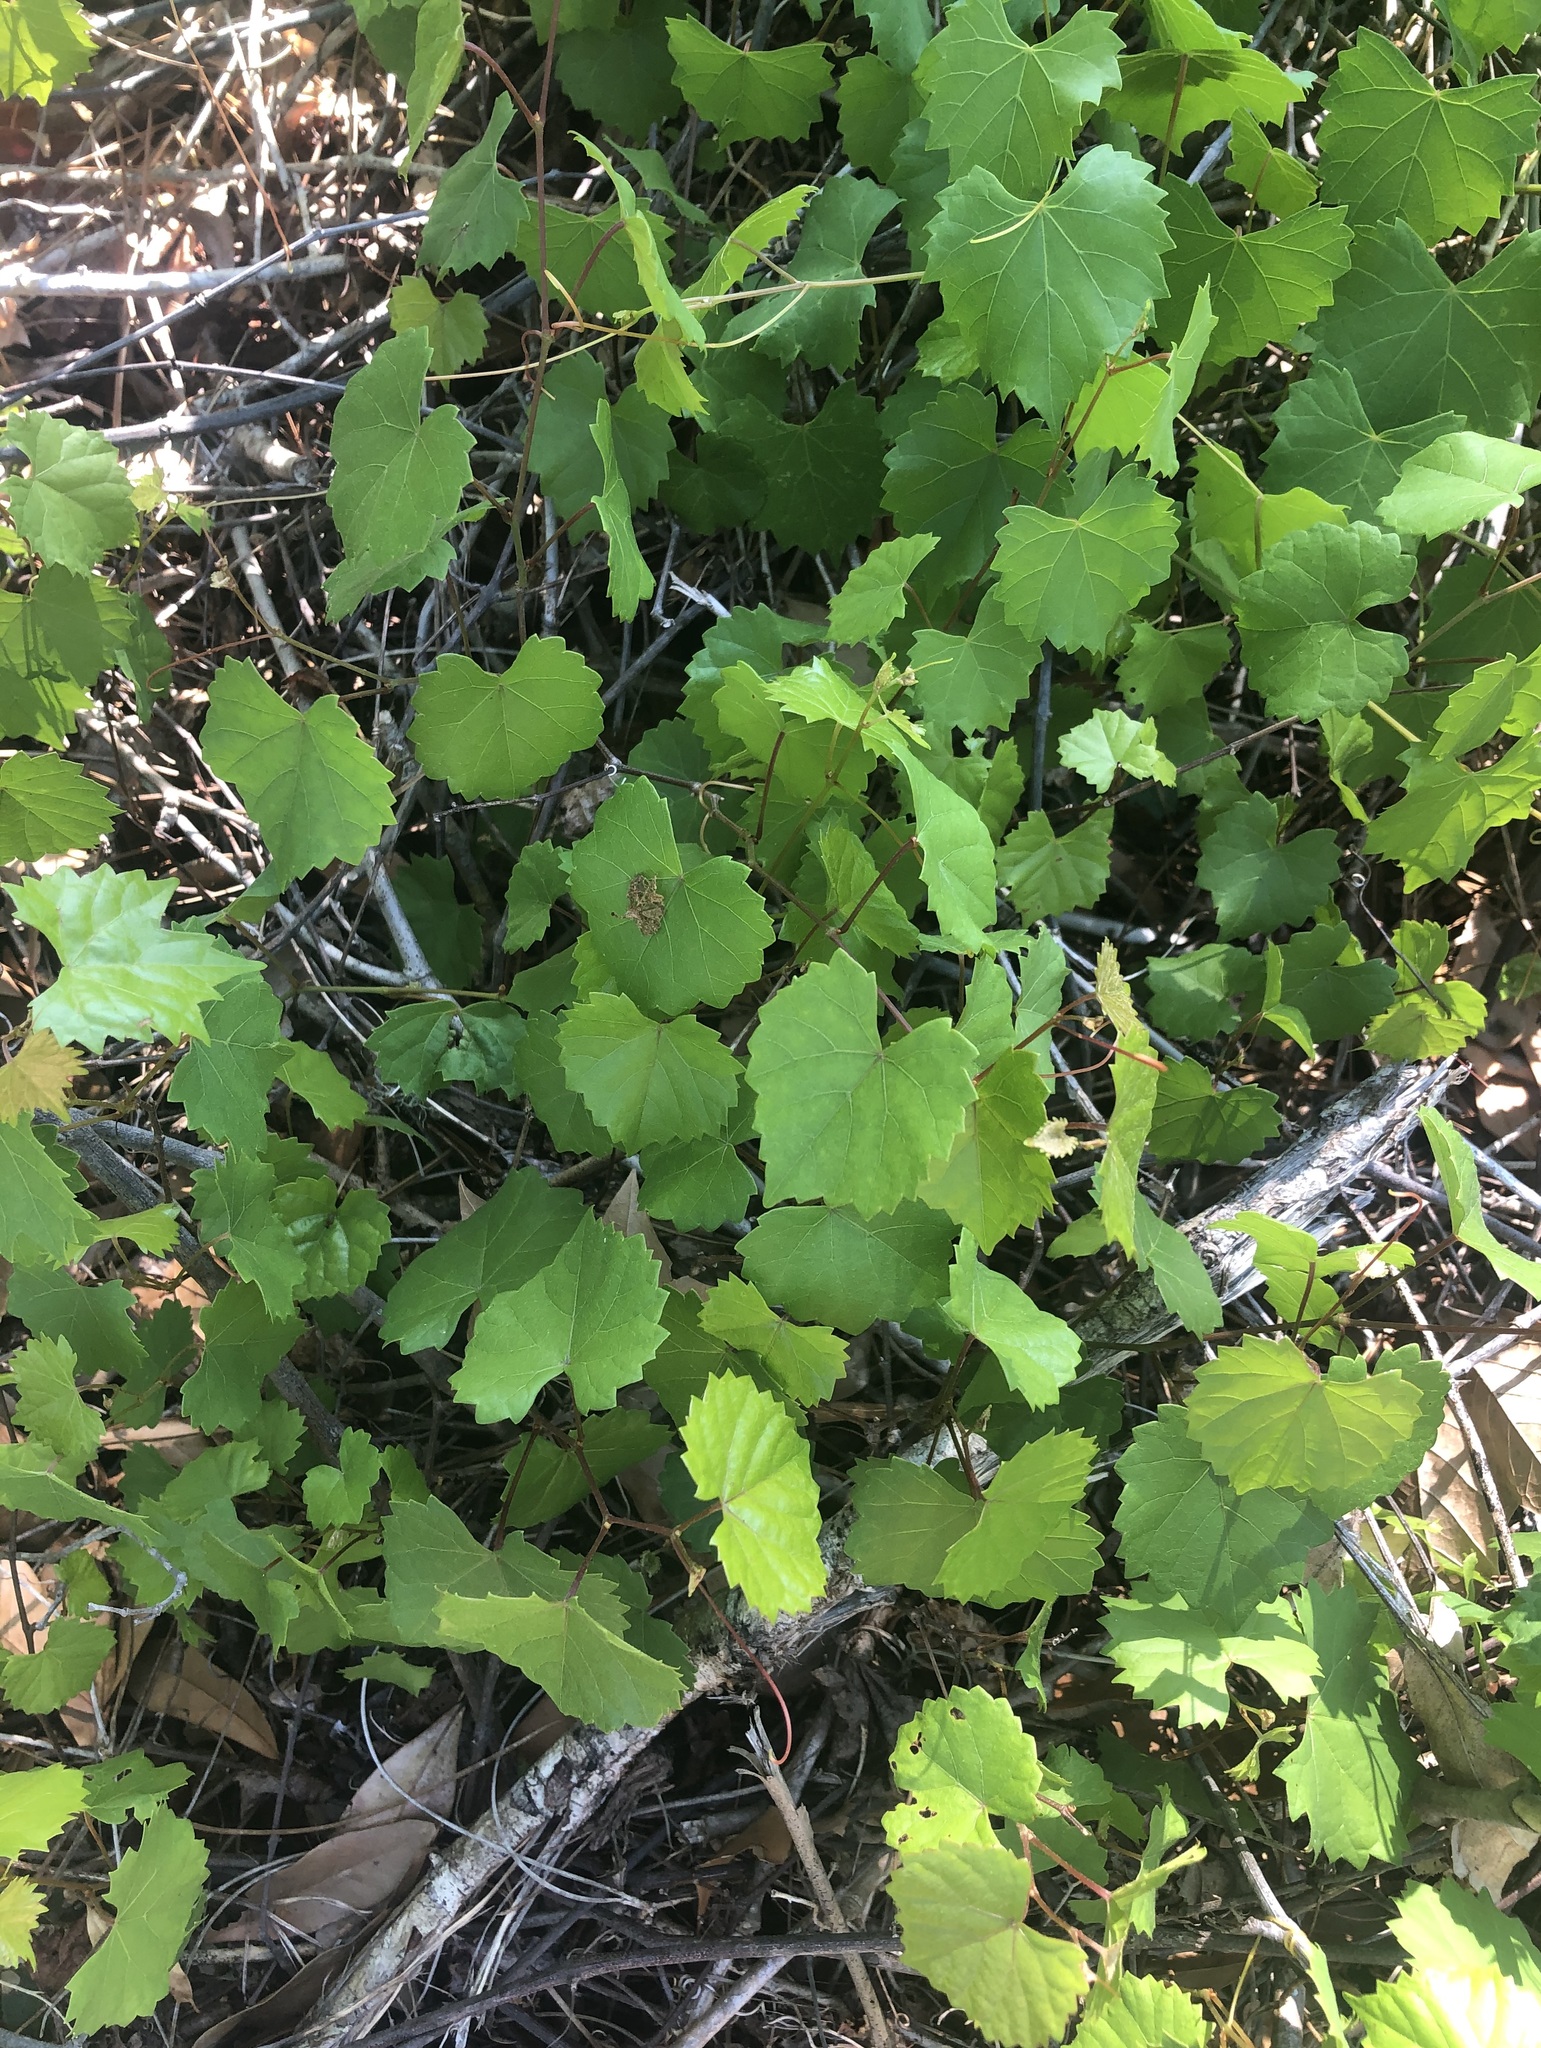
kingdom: Plantae
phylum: Tracheophyta
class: Magnoliopsida
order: Vitales
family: Vitaceae
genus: Vitis
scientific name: Vitis rotundifolia
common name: Muscadine grape
